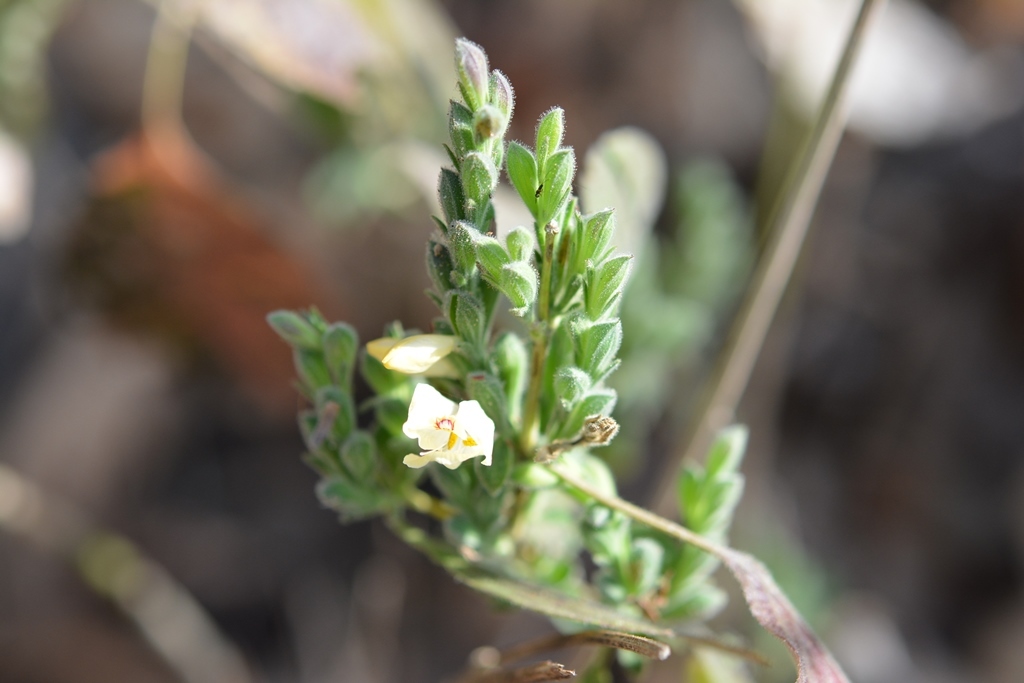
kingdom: Plantae
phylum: Tracheophyta
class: Magnoliopsida
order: Lamiales
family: Acanthaceae
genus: Henrya
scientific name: Henrya insularis
